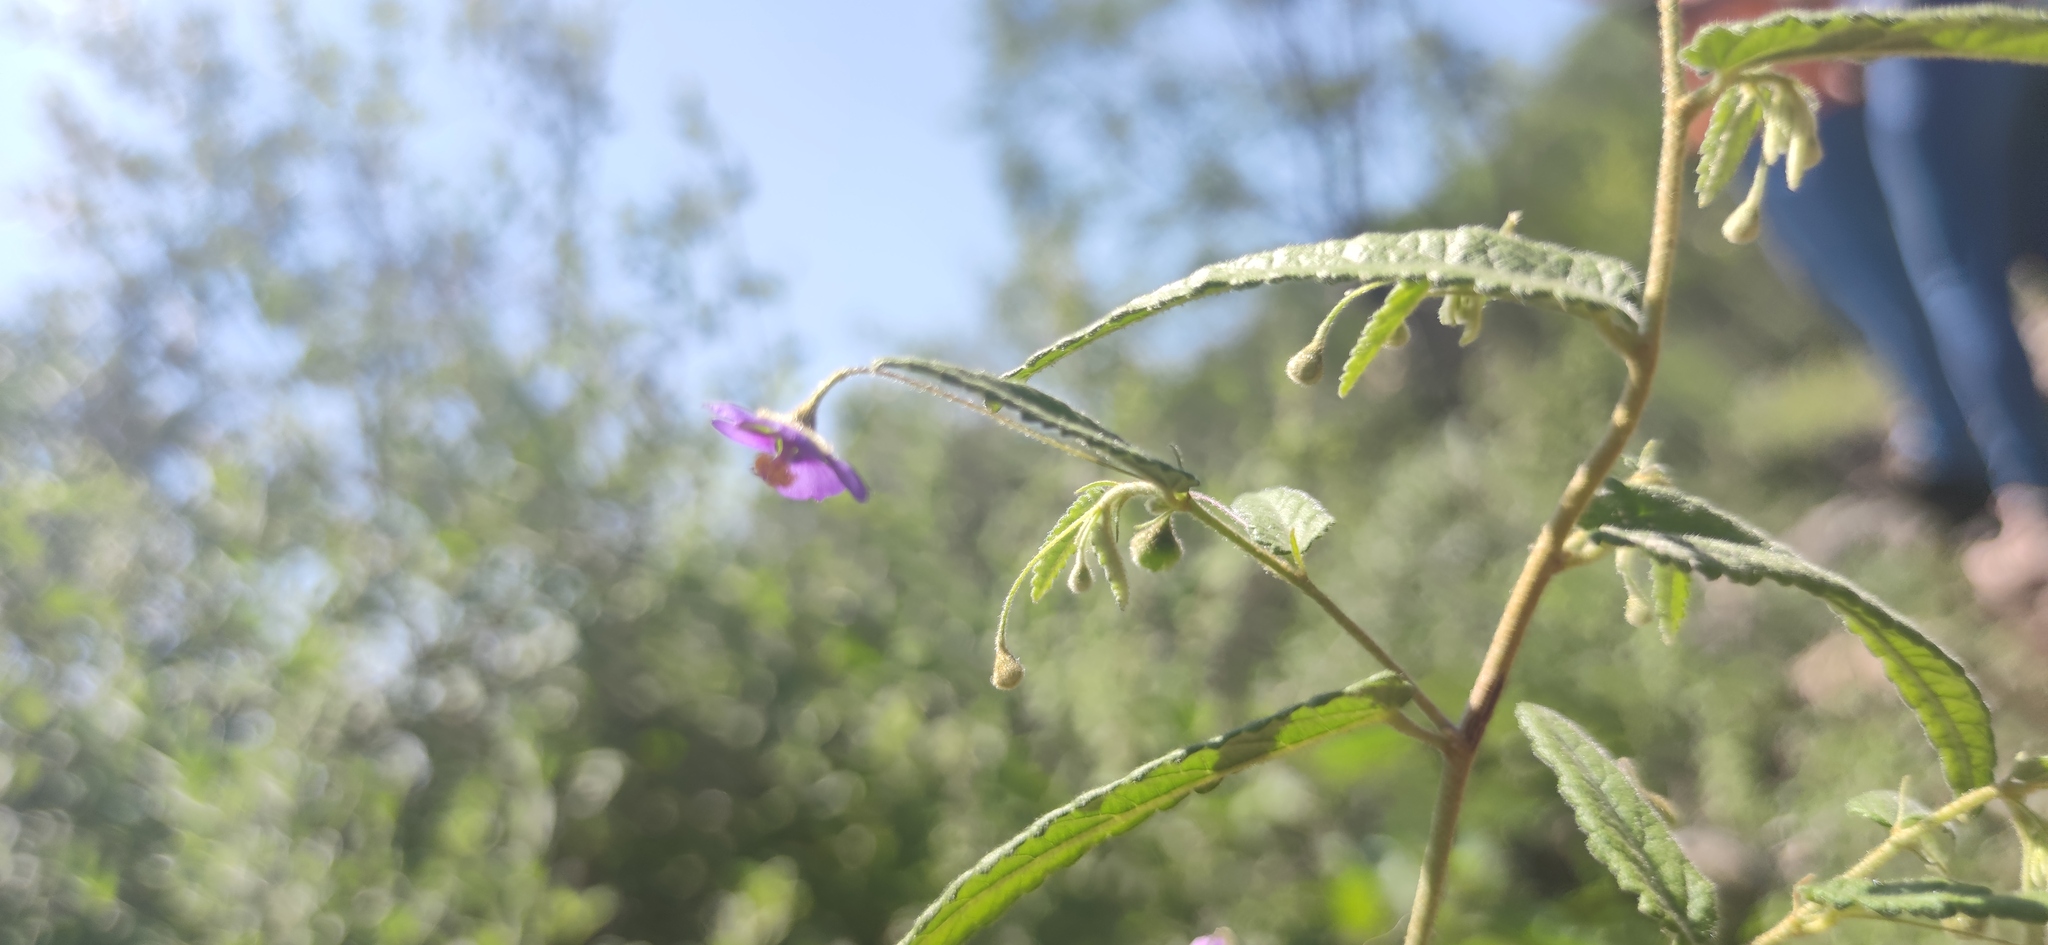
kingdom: Plantae
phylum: Tracheophyta
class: Magnoliopsida
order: Malvales
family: Malvaceae
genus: Meximalva
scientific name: Meximalva filipes
